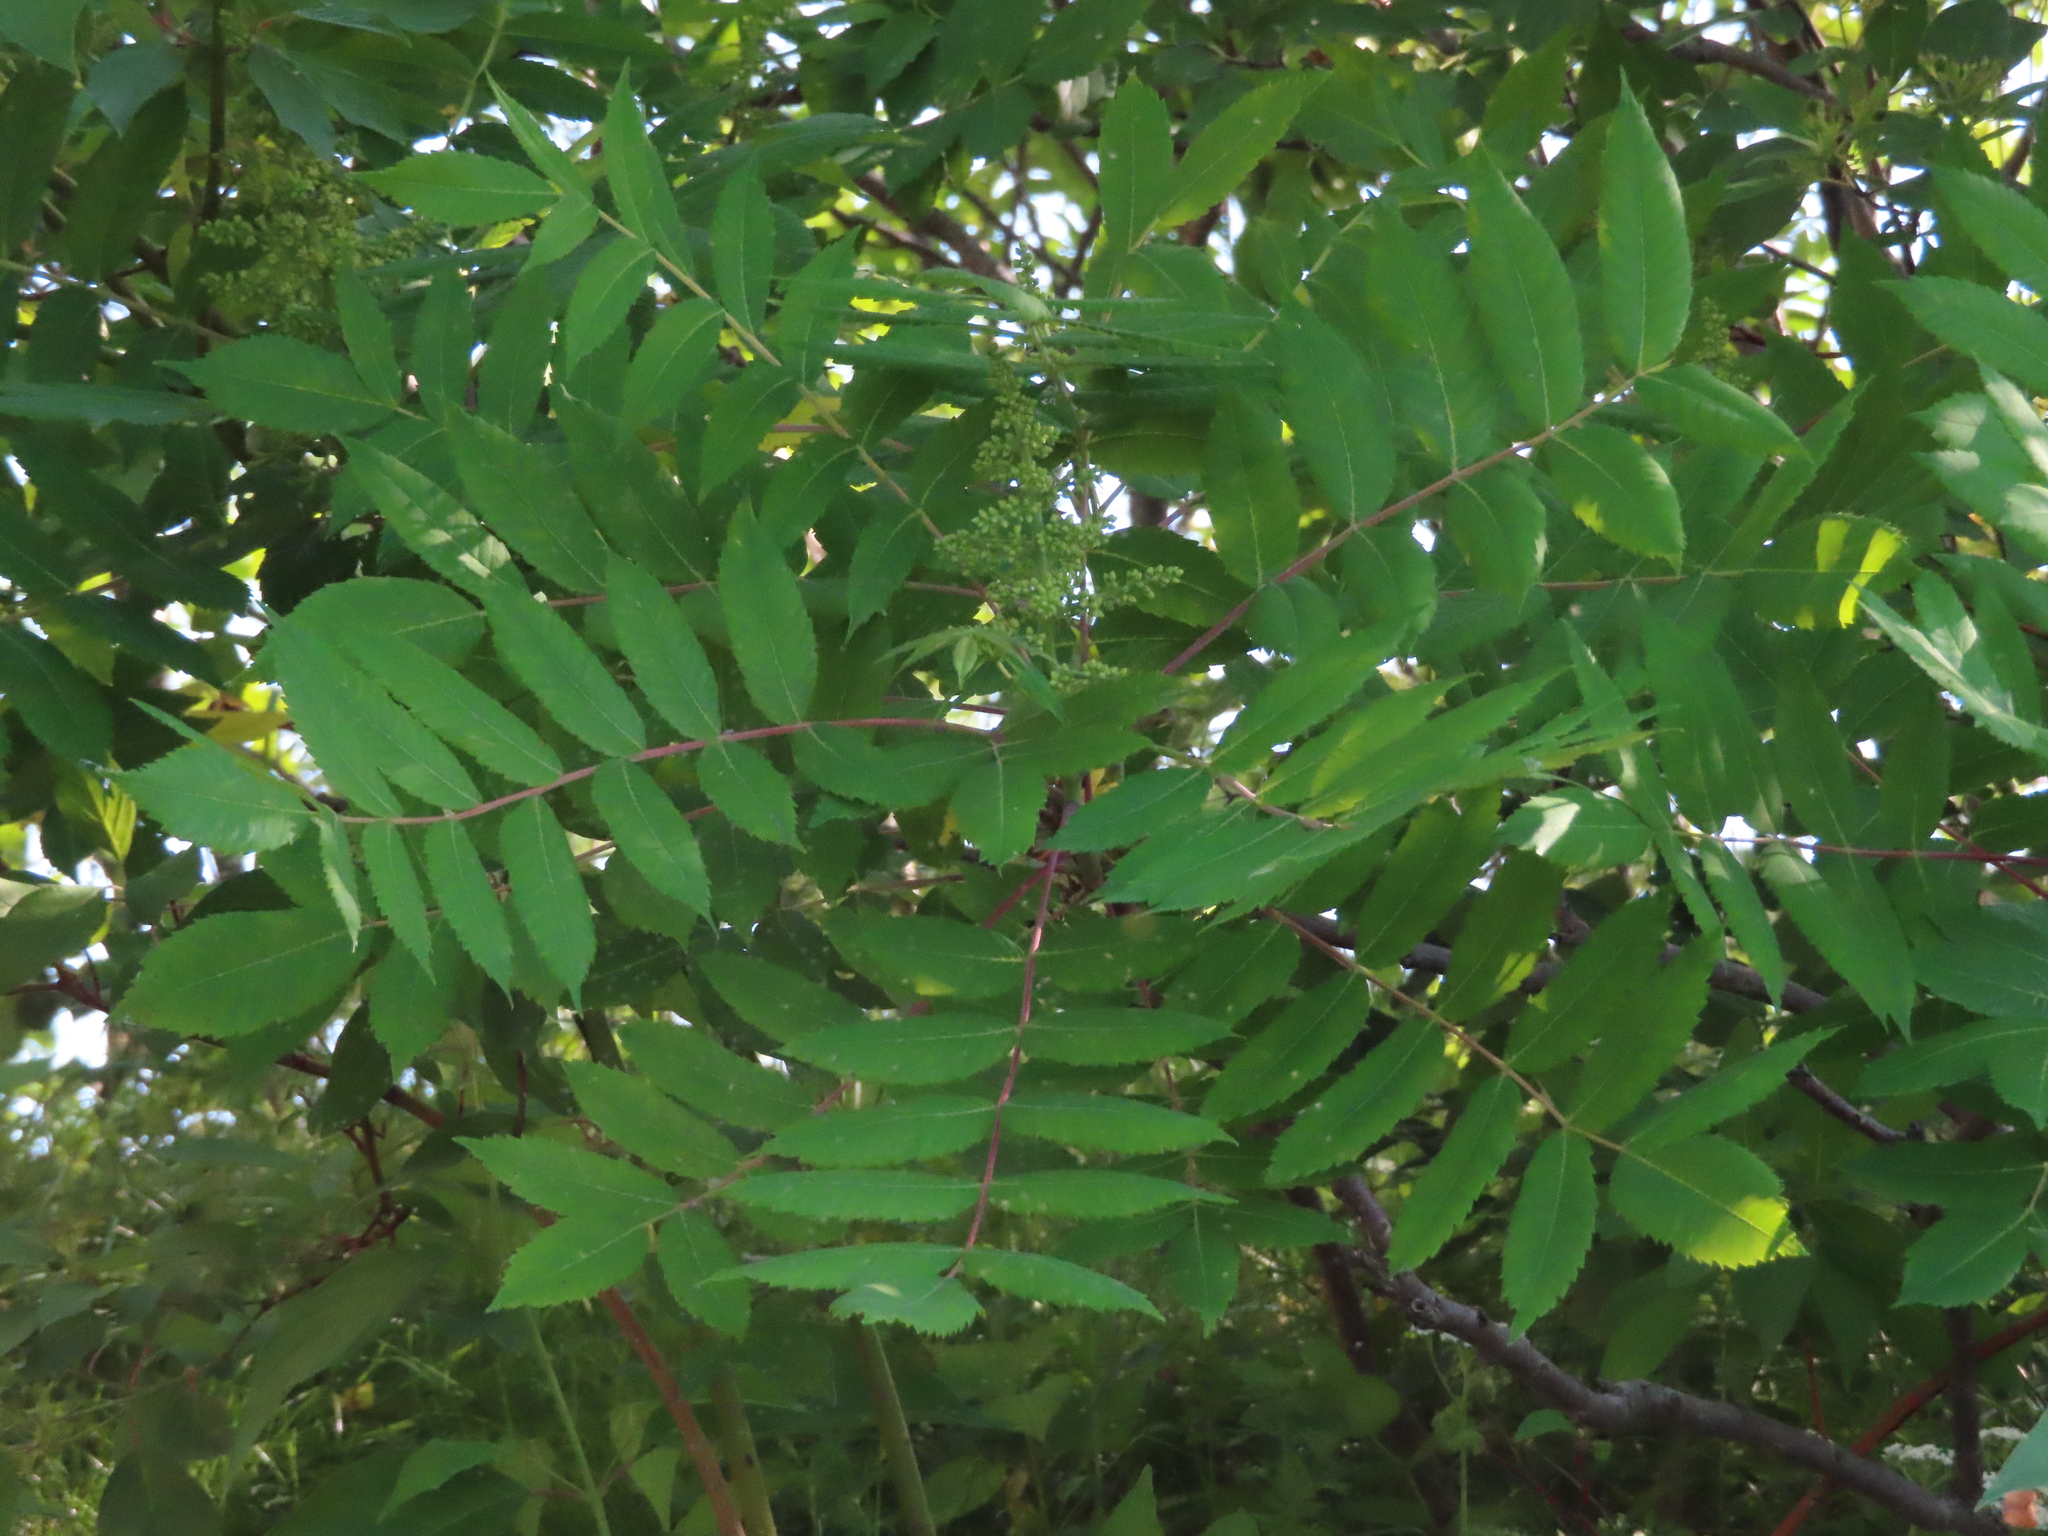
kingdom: Plantae
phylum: Tracheophyta
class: Magnoliopsida
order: Sapindales
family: Anacardiaceae
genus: Rhus
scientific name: Rhus glabra
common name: Scarlet sumac
